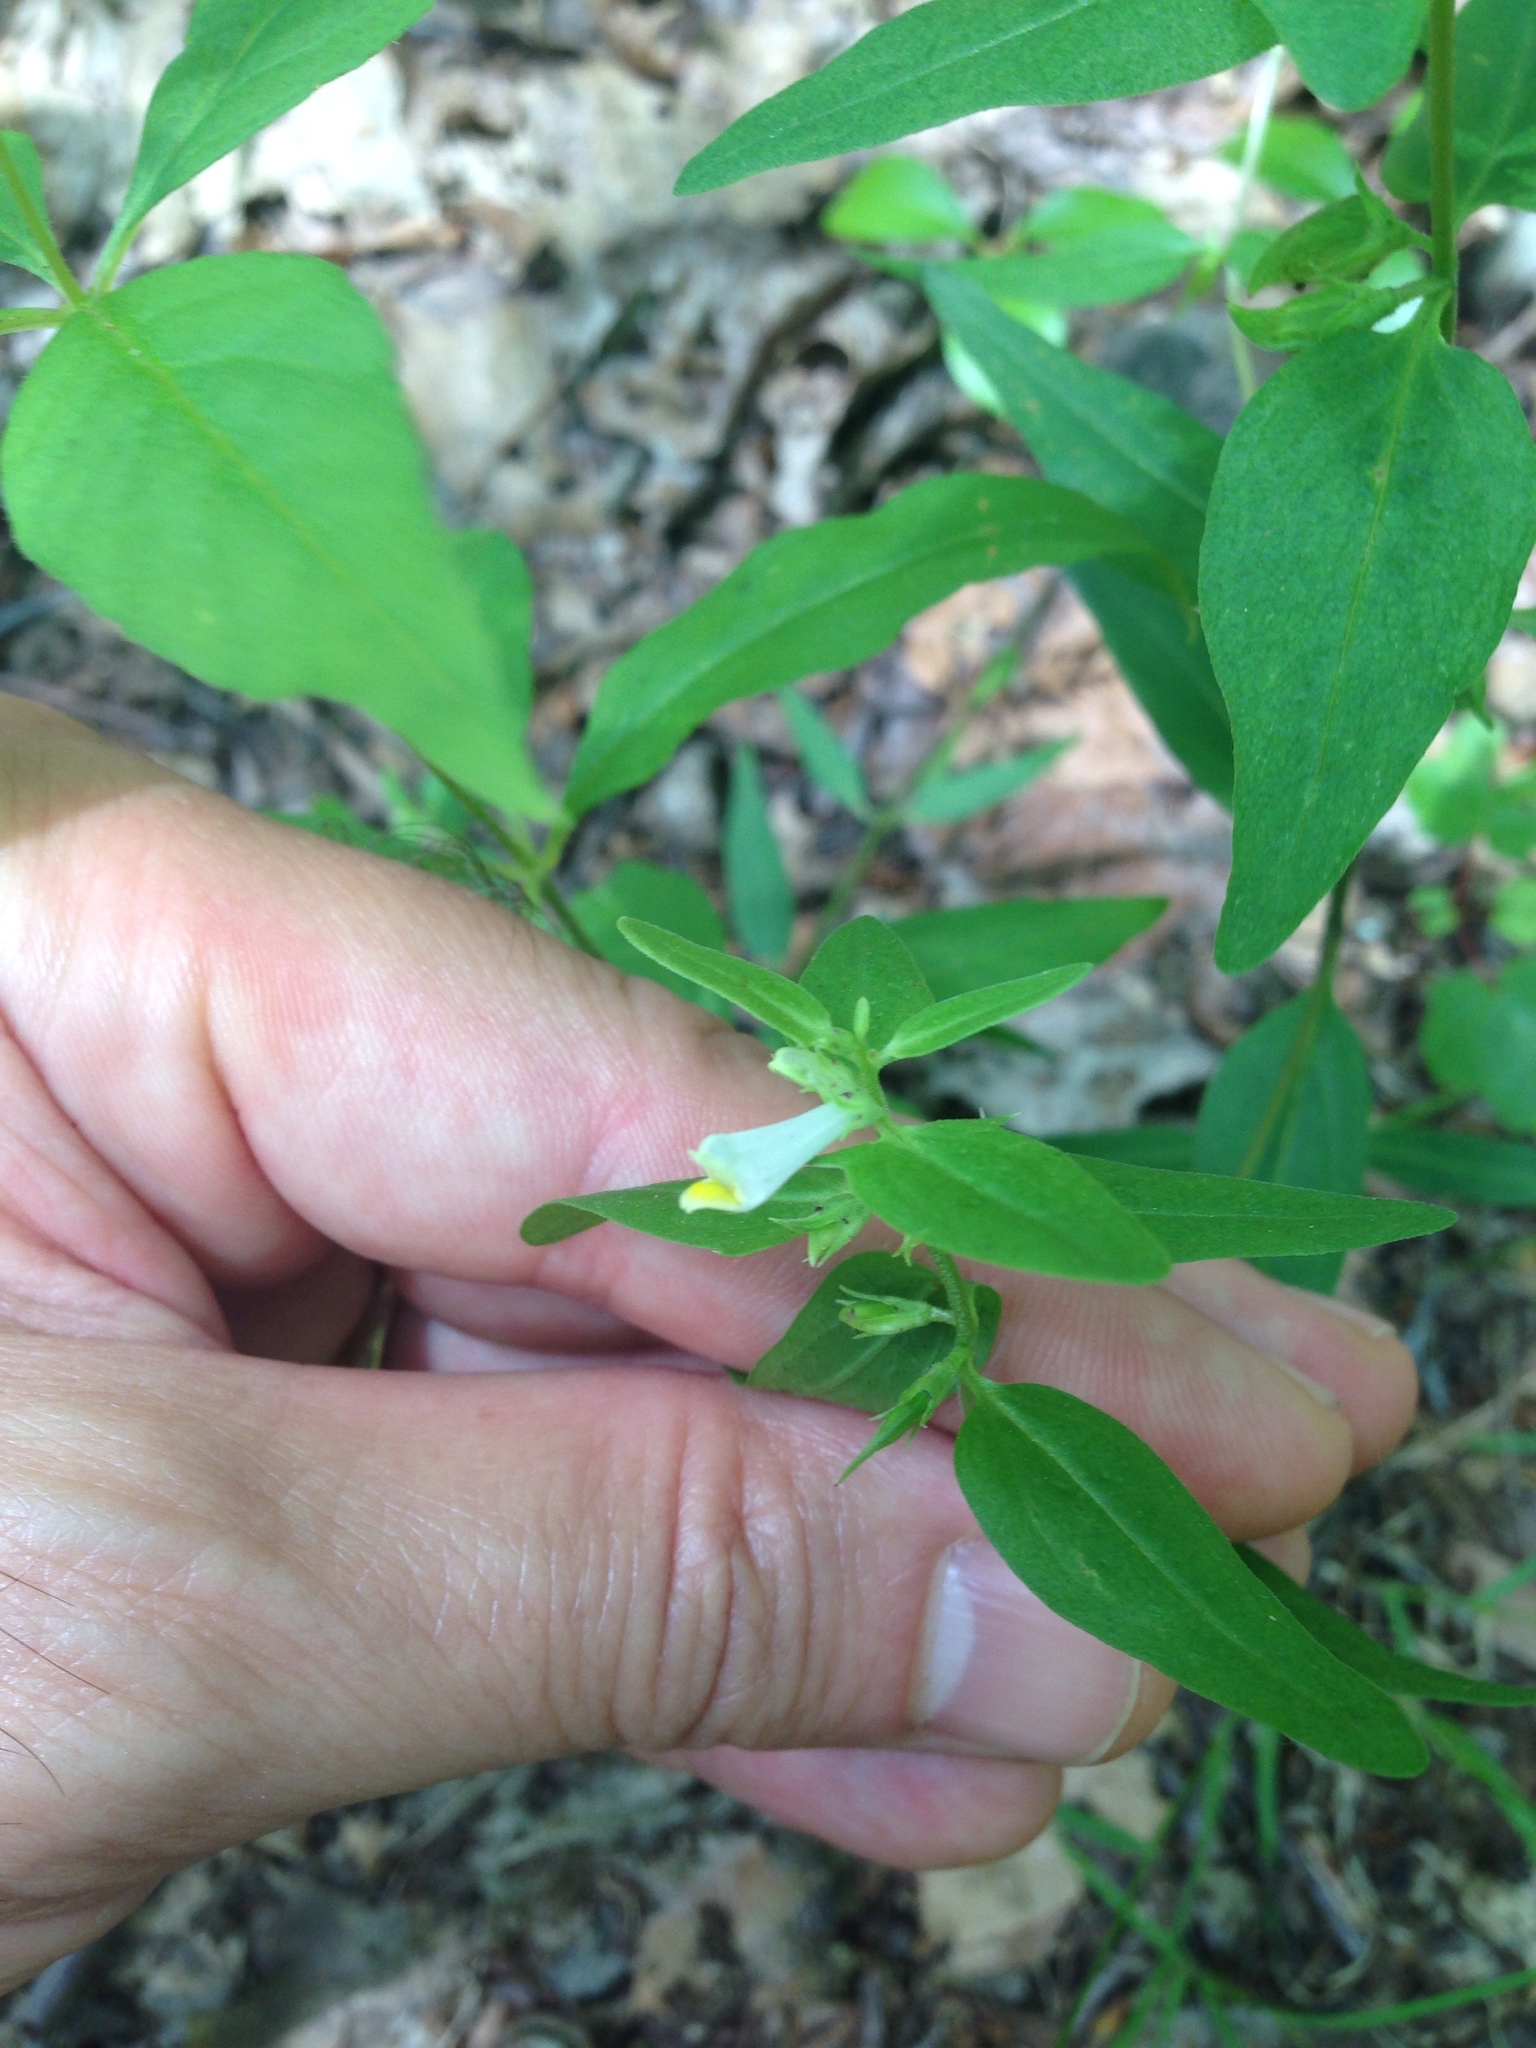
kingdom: Plantae
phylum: Tracheophyta
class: Magnoliopsida
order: Lamiales
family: Orobanchaceae
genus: Melampyrum
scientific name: Melampyrum lineare
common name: American cow-wheat
